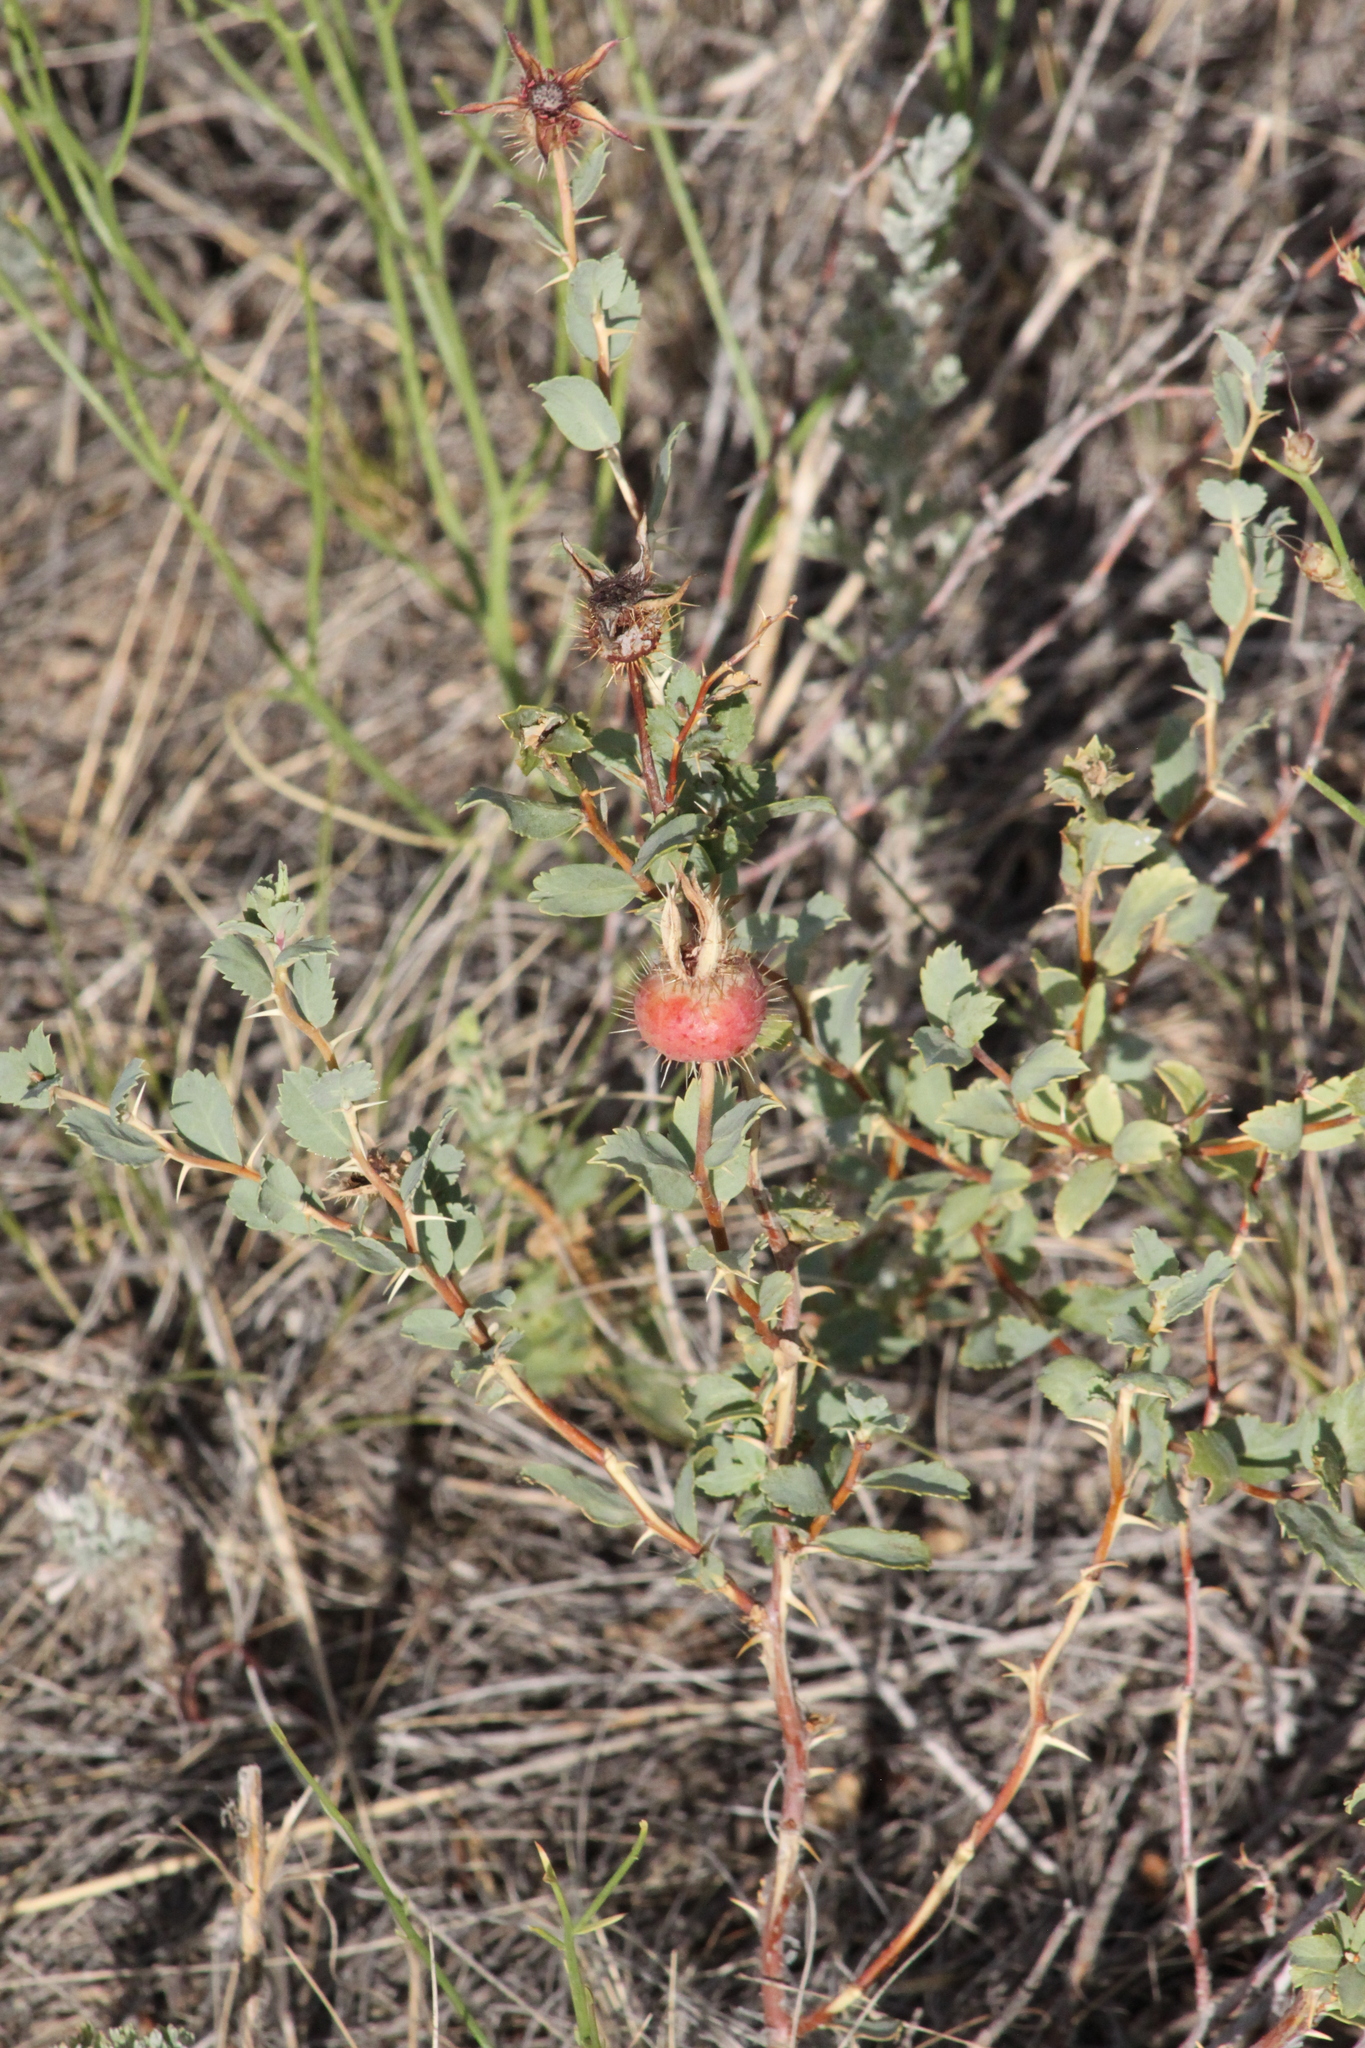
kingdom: Plantae
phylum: Tracheophyta
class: Magnoliopsida
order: Rosales
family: Rosaceae
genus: Rosa
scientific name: Rosa persica
